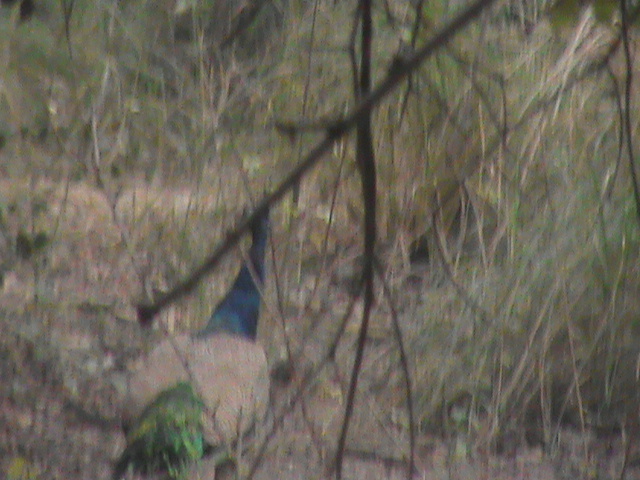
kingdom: Animalia
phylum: Chordata
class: Aves
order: Galliformes
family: Phasianidae
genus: Pavo
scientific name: Pavo cristatus
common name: Indian peafowl
